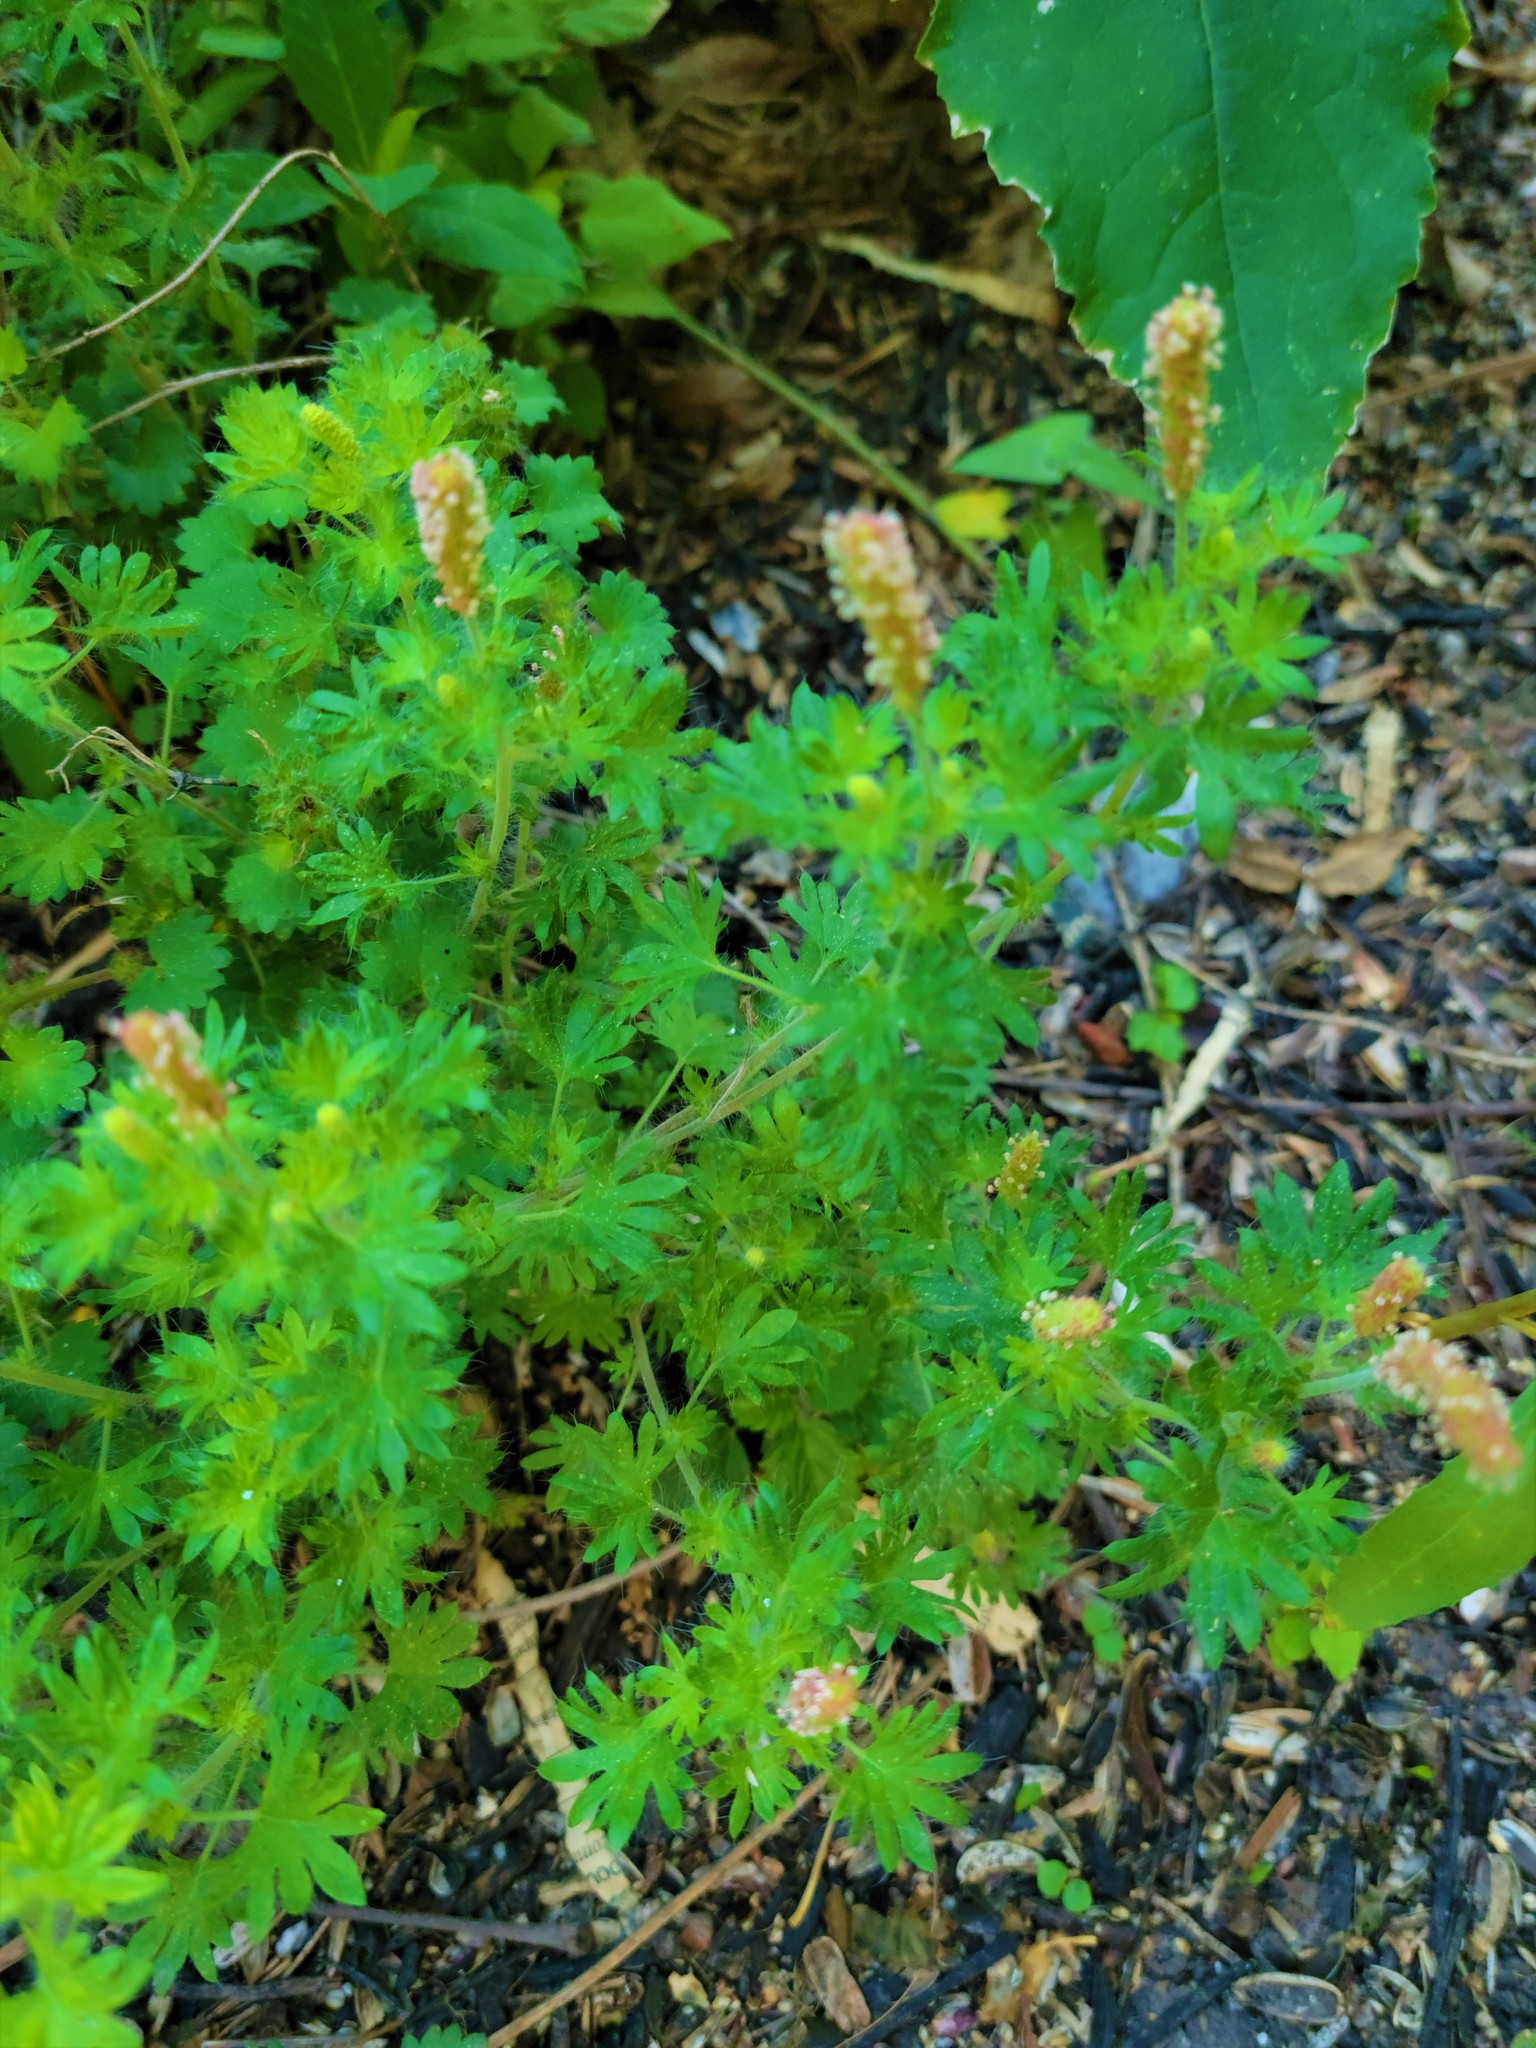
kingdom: Plantae
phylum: Tracheophyta
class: Magnoliopsida
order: Malpighiales
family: Euphorbiaceae
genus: Acalypha
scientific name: Acalypha radians
